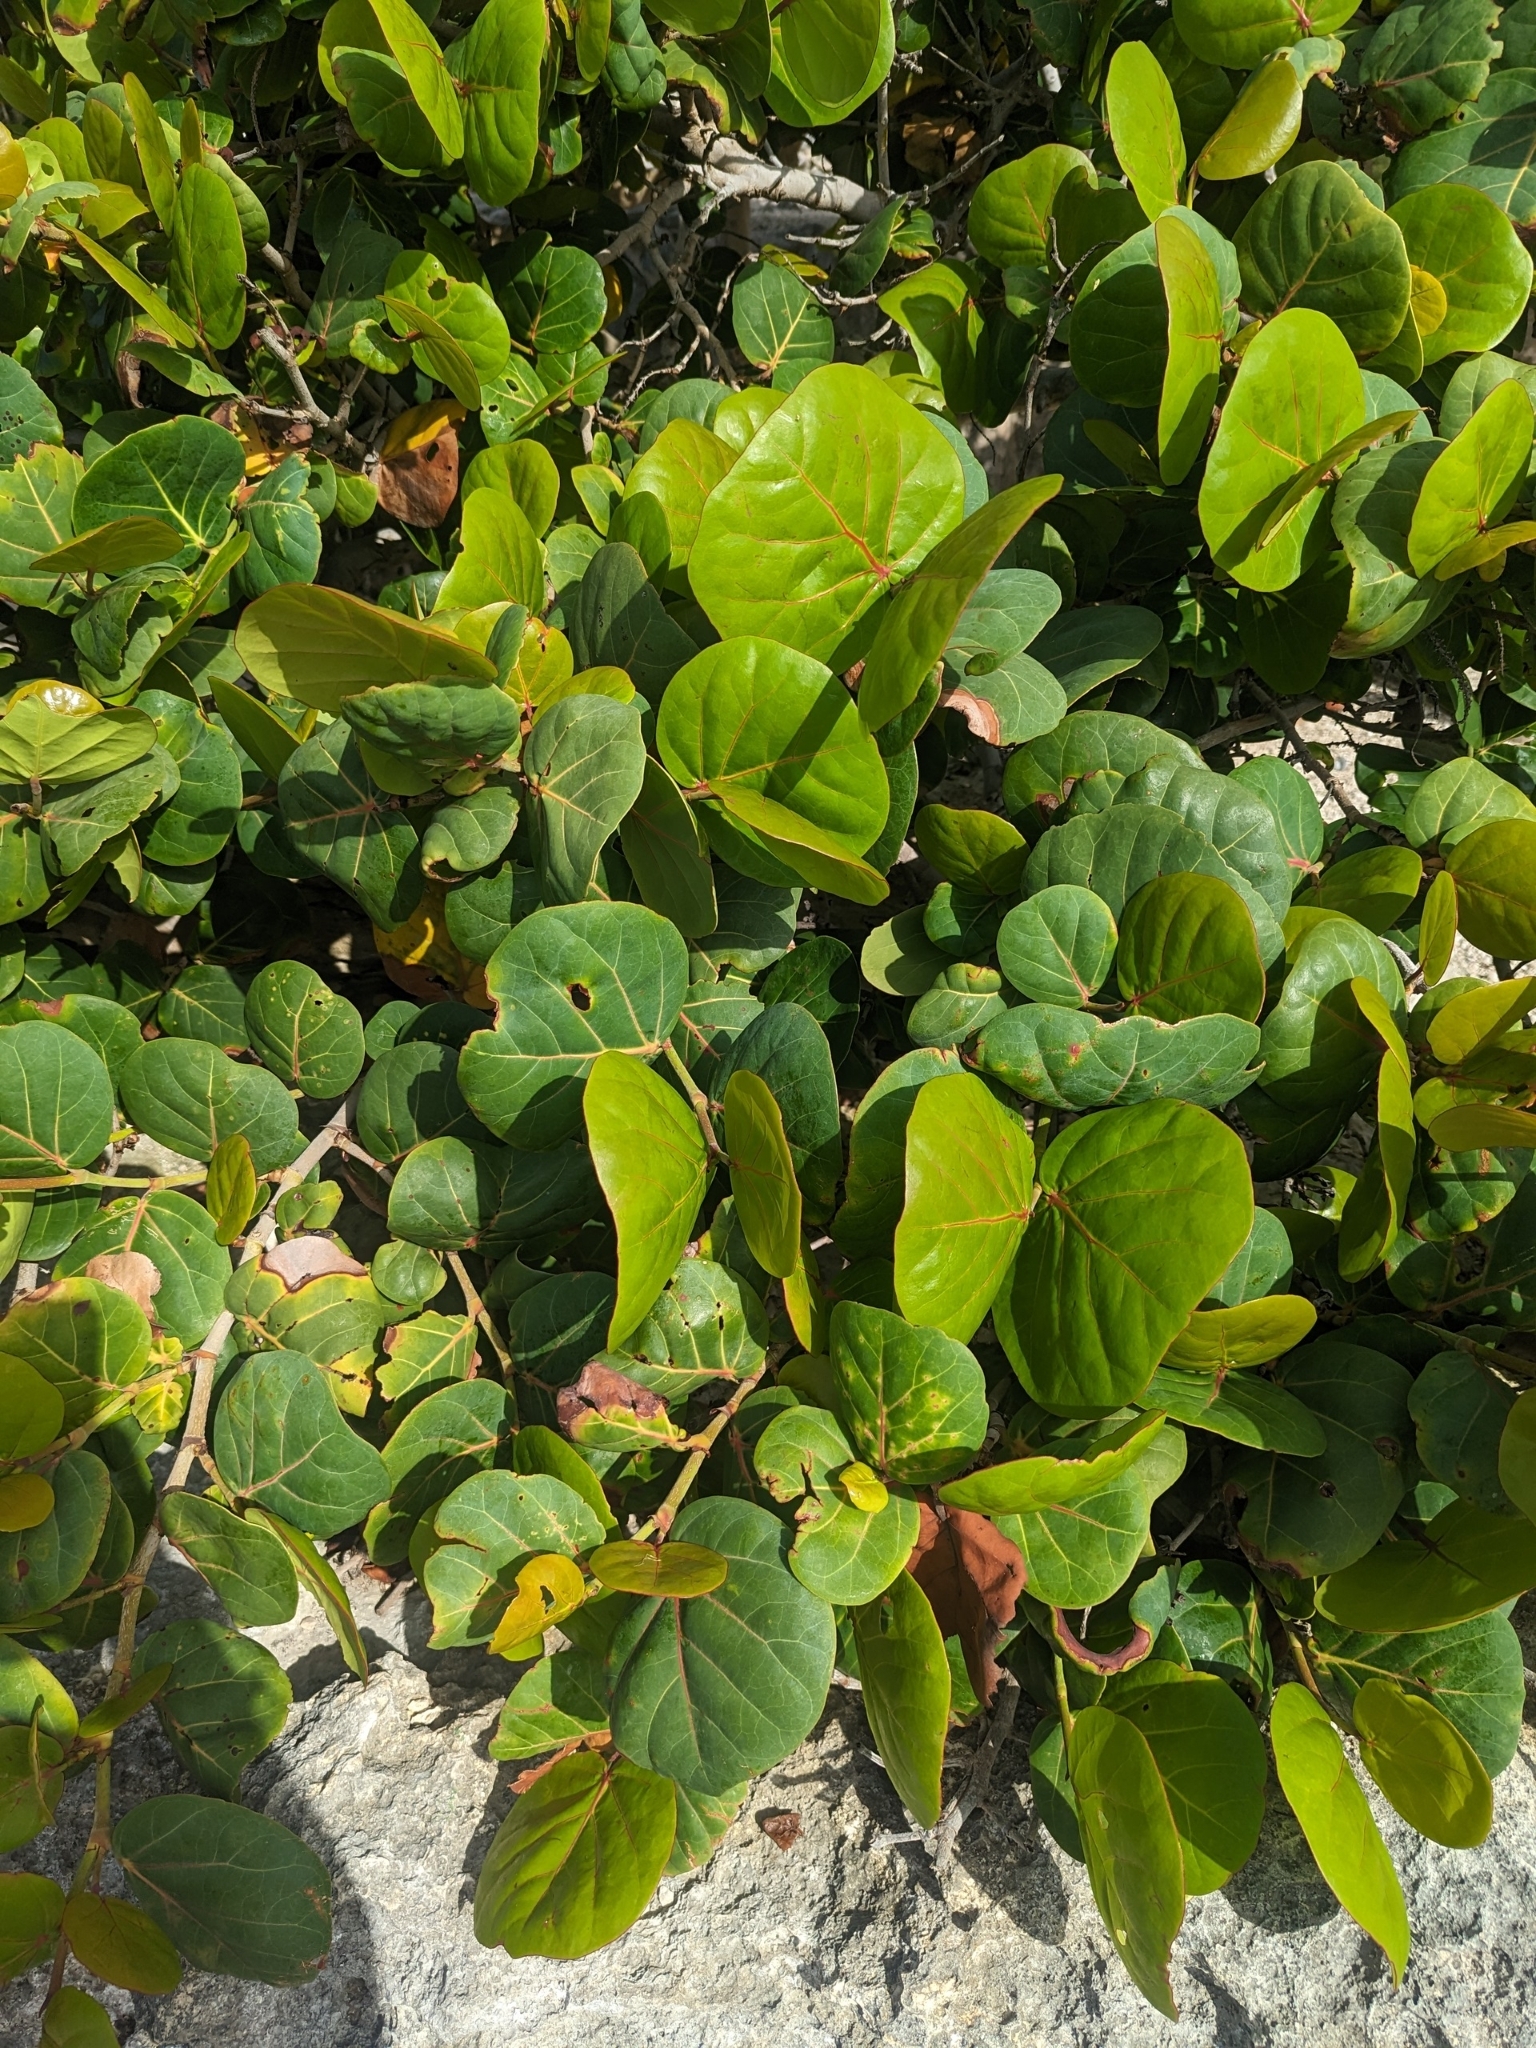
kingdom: Plantae
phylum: Tracheophyta
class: Magnoliopsida
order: Caryophyllales
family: Polygonaceae
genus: Coccoloba
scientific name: Coccoloba uvifera
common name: Seagrape
